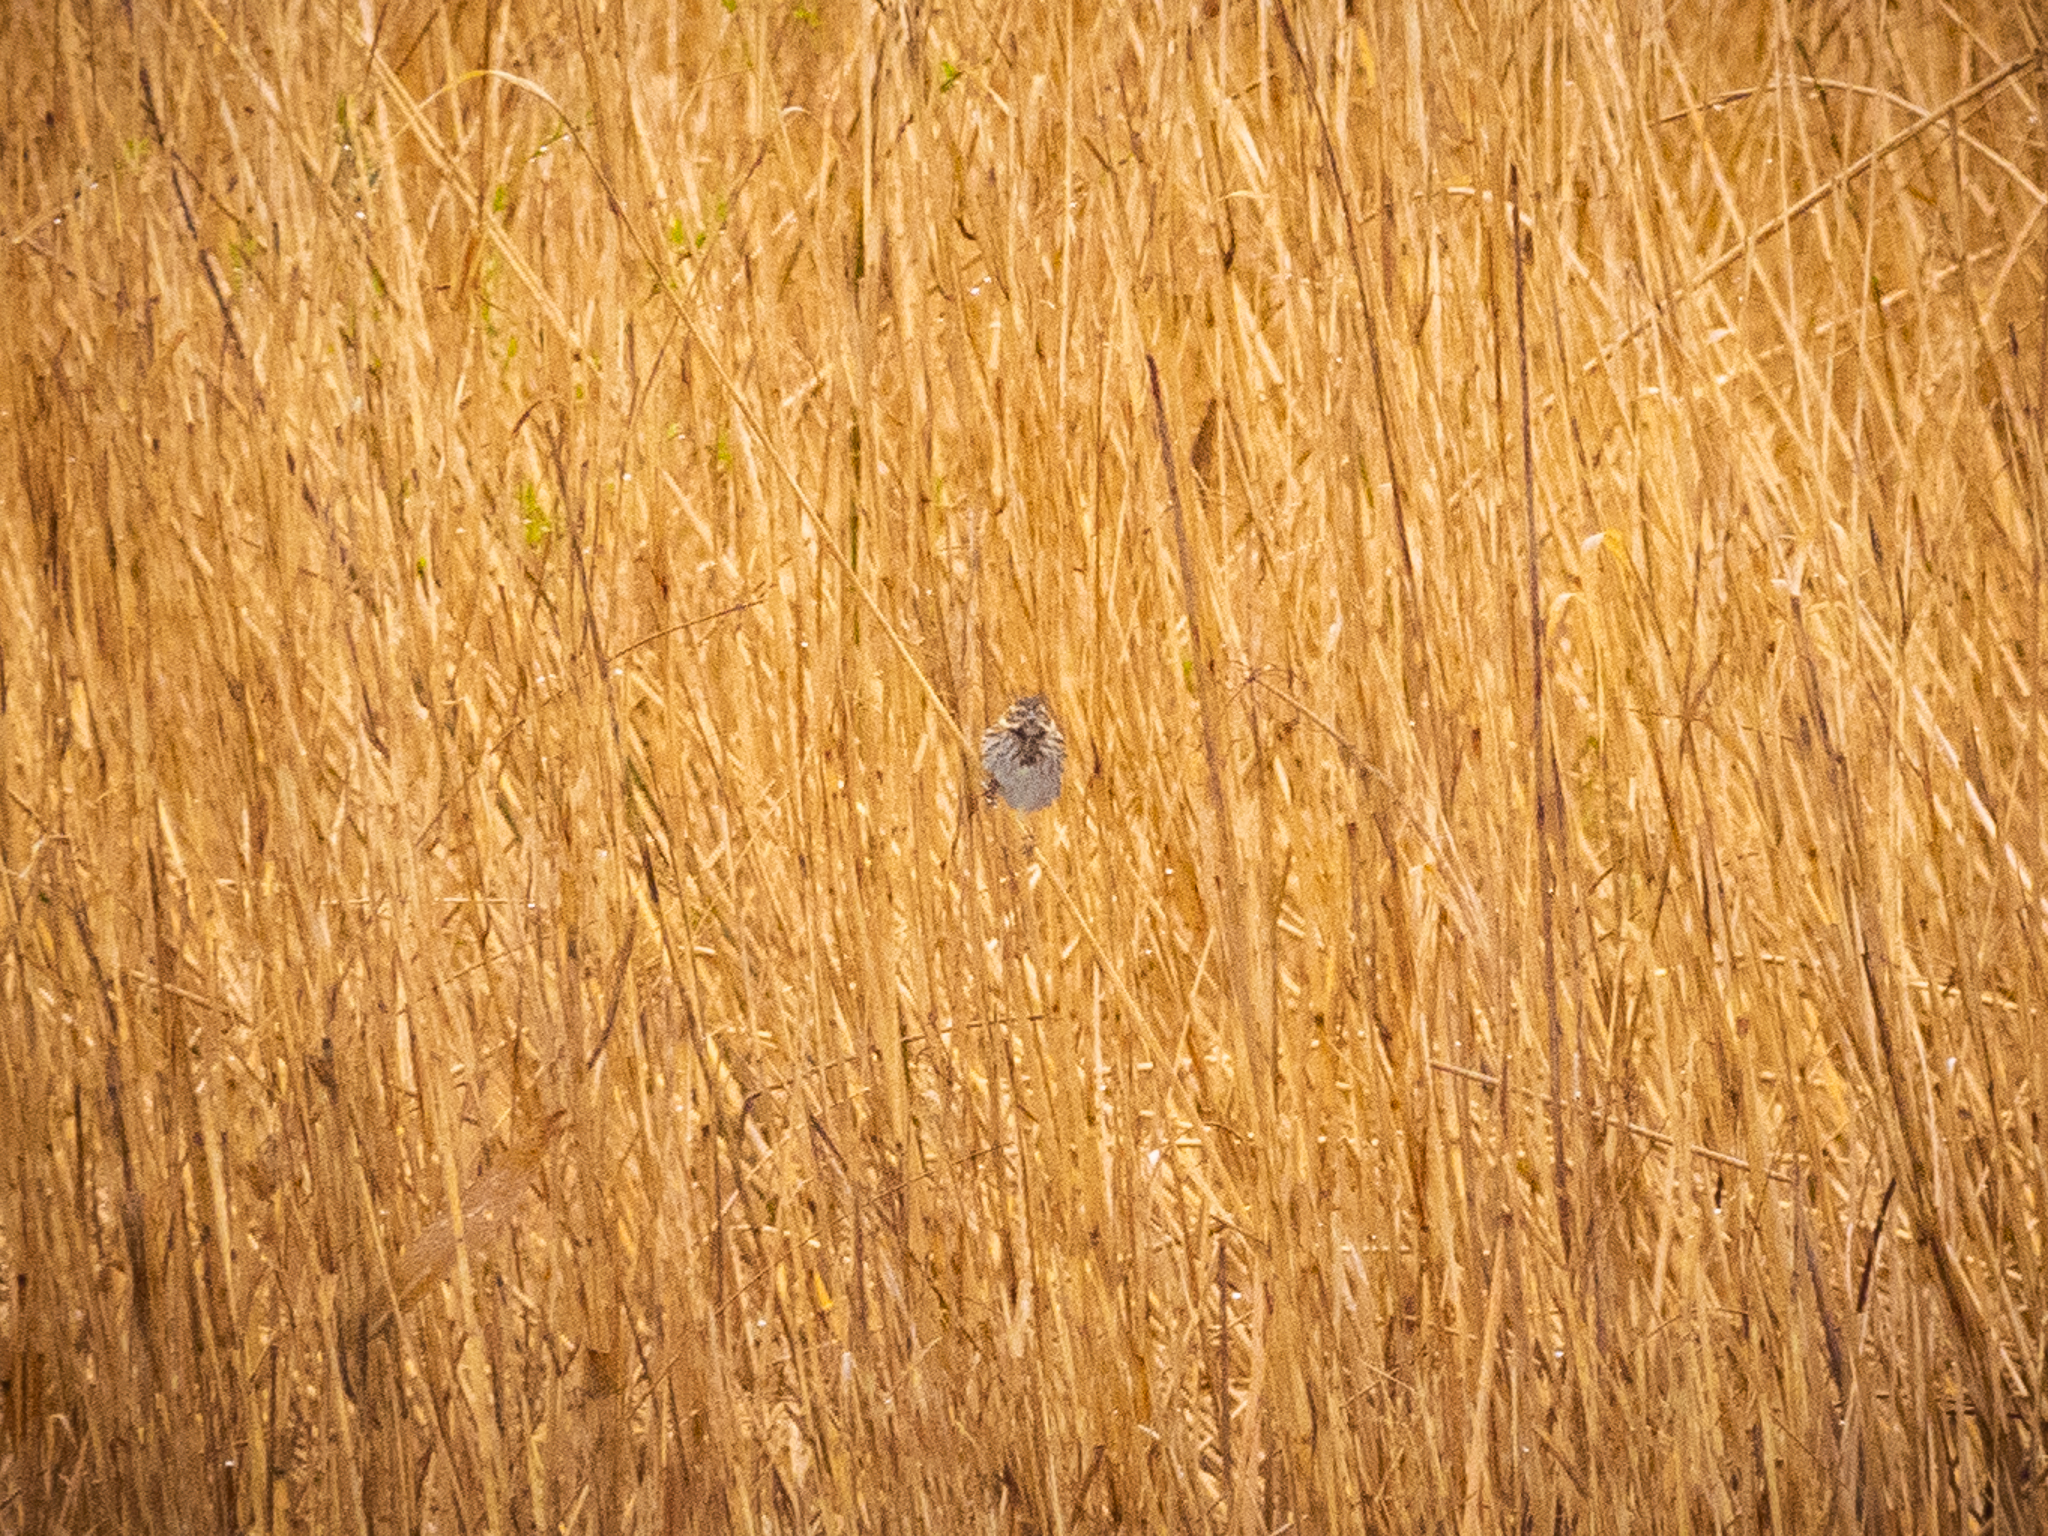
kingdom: Animalia
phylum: Chordata
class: Aves
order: Passeriformes
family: Emberizidae
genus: Emberiza
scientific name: Emberiza schoeniclus
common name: Reed bunting
